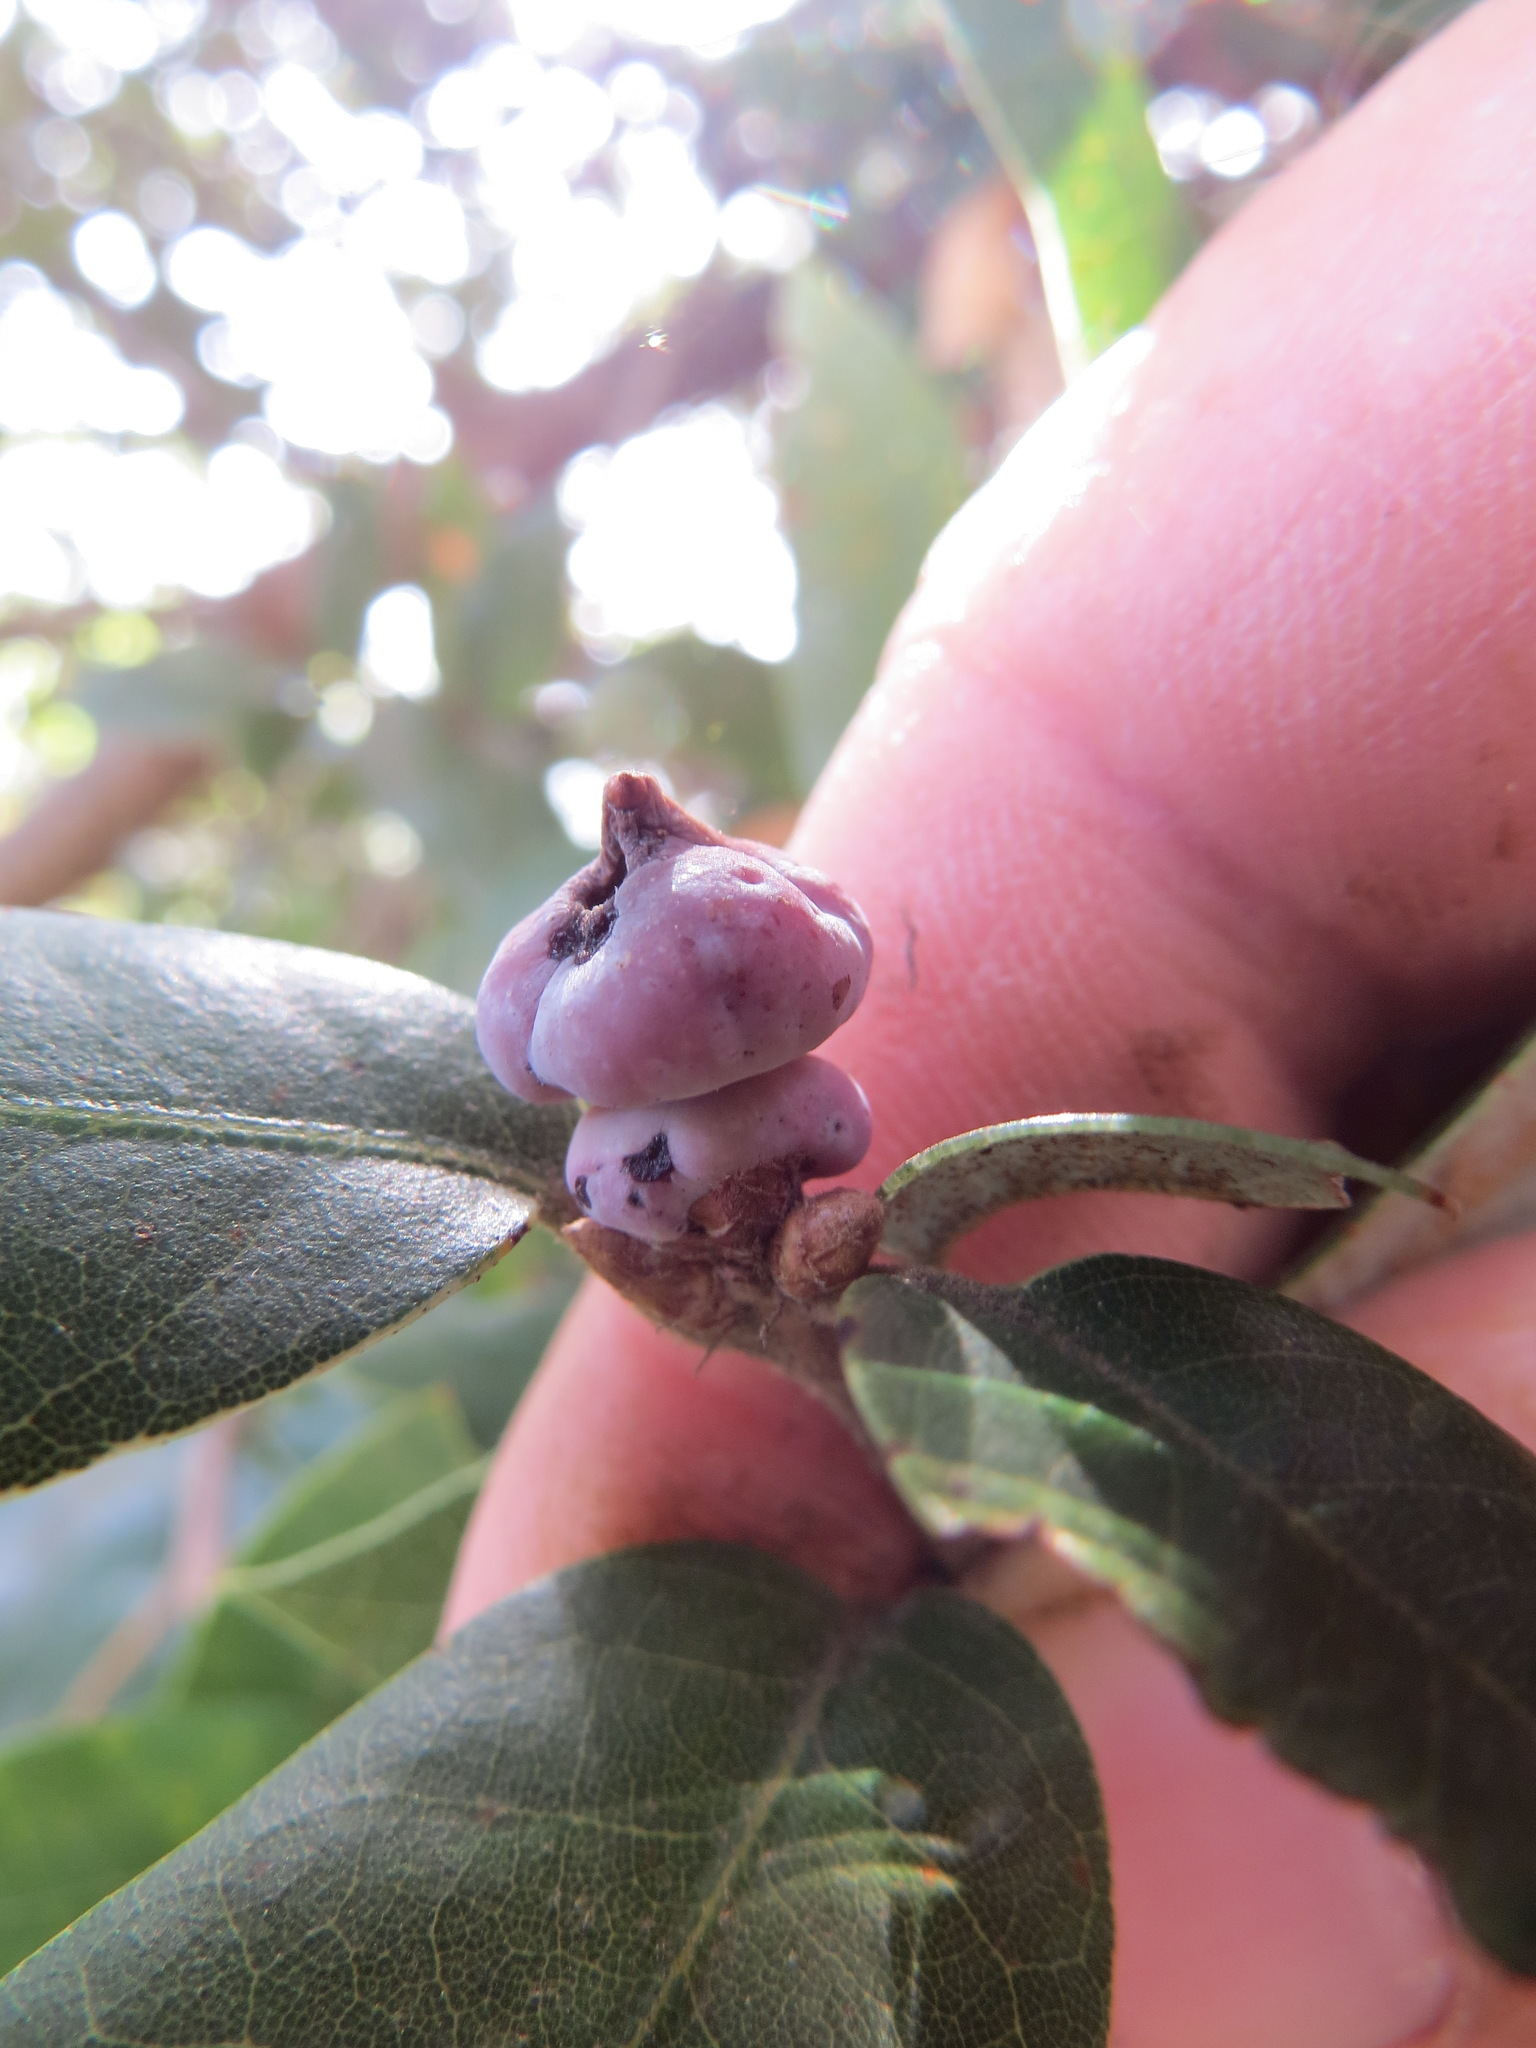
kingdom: Animalia
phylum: Arthropoda
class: Insecta
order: Hymenoptera
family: Cynipidae
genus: Heteroecus
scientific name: Heteroecus
